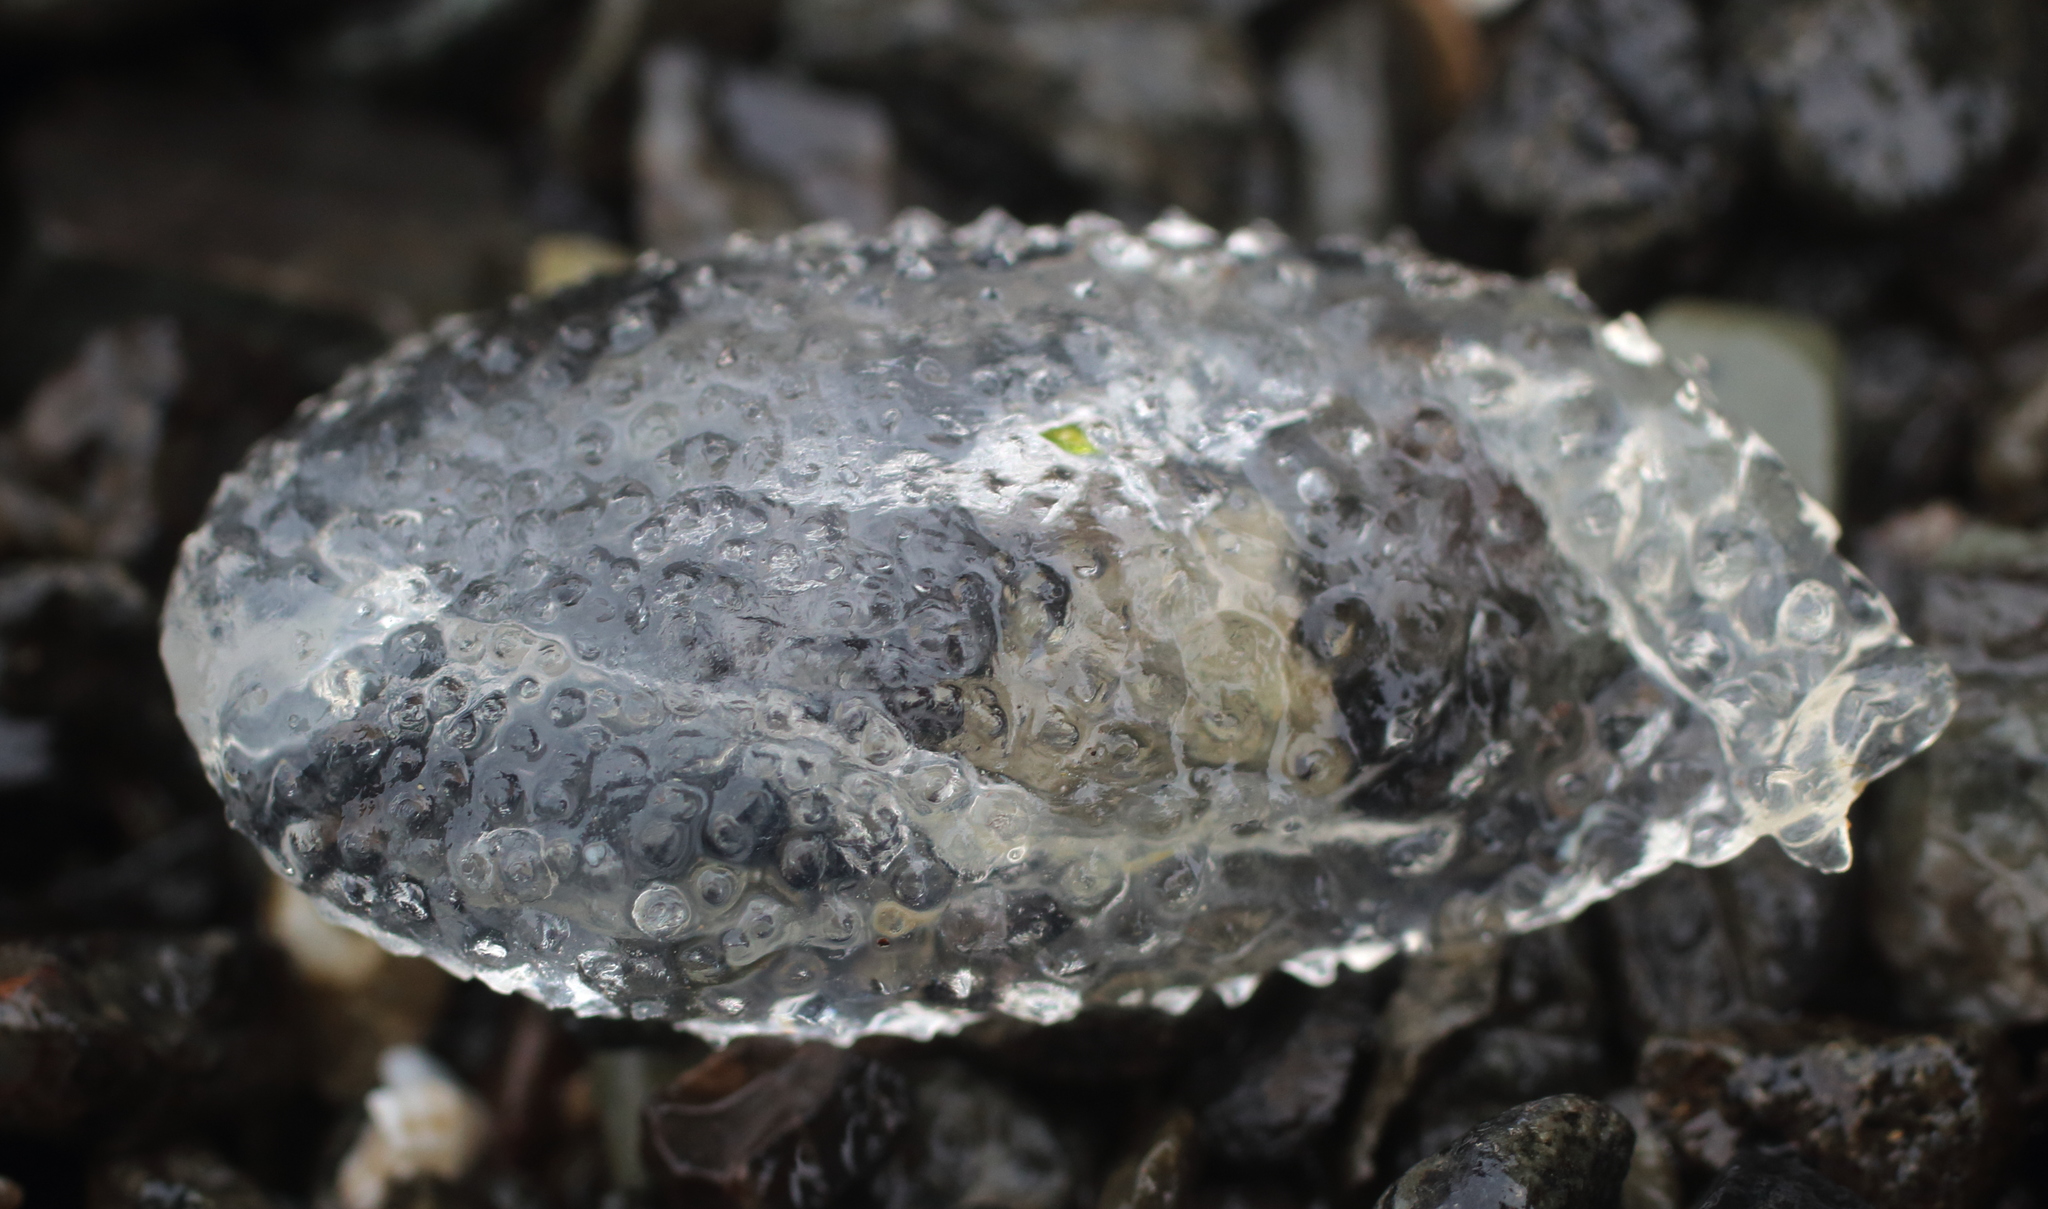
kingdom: Animalia
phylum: Mollusca
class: Gastropoda
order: Pteropoda
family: Cymbuliidae
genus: Corolla
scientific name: Corolla spectabilis
